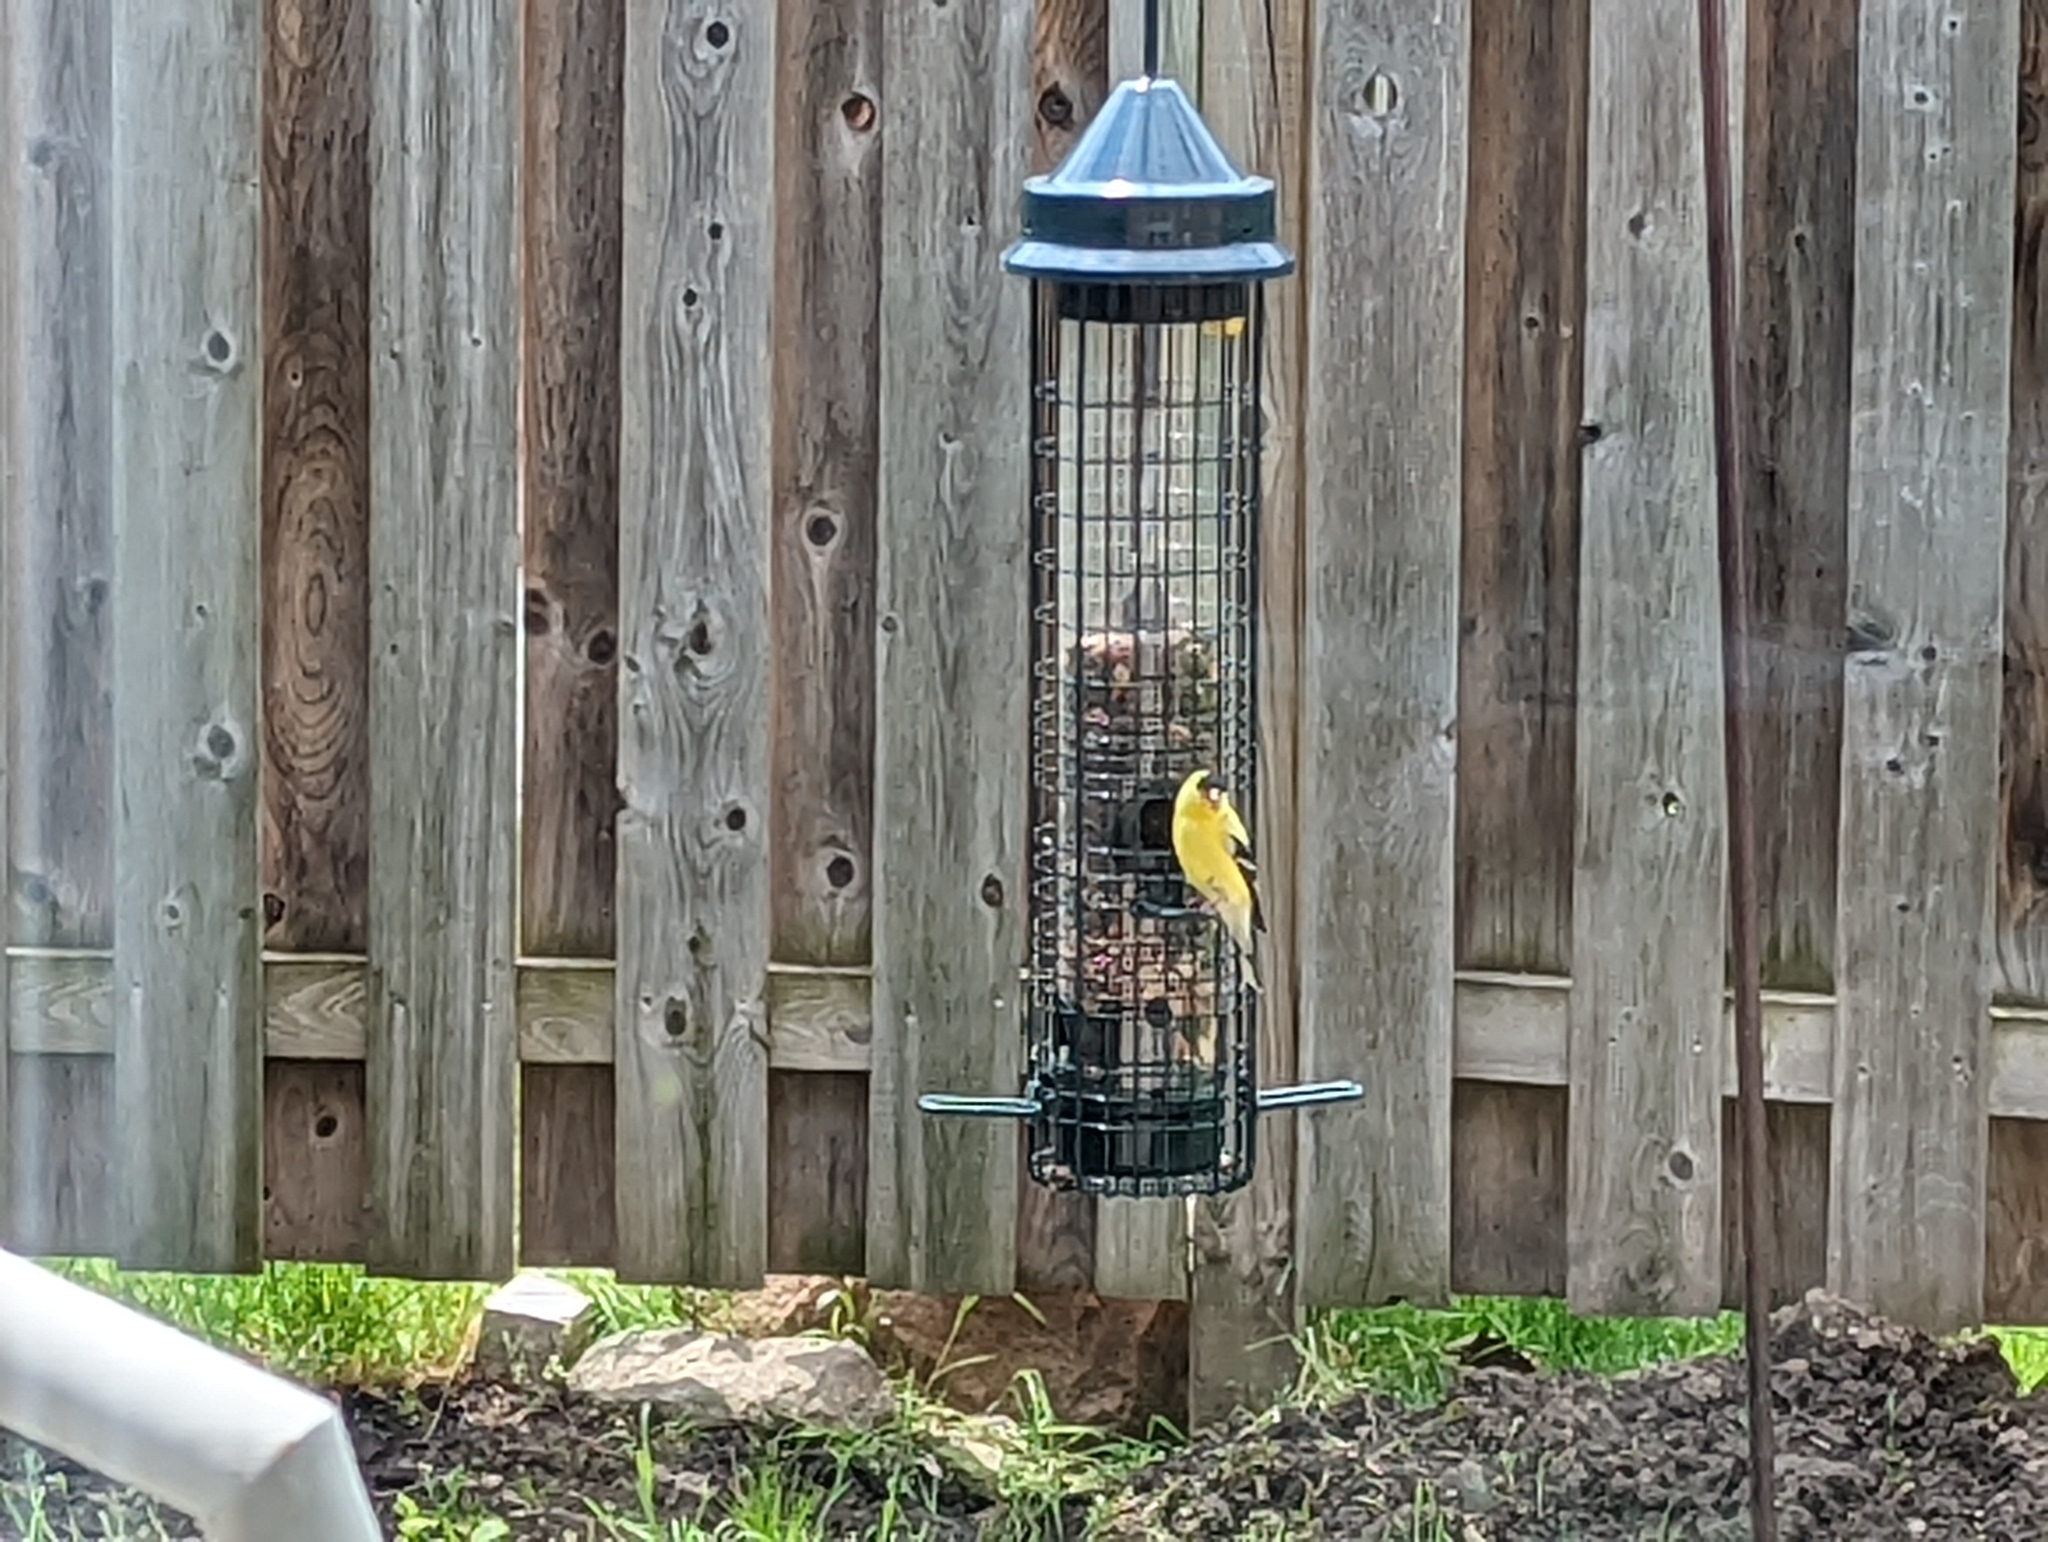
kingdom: Animalia
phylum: Chordata
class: Aves
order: Passeriformes
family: Fringillidae
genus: Spinus
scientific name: Spinus tristis
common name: American goldfinch
